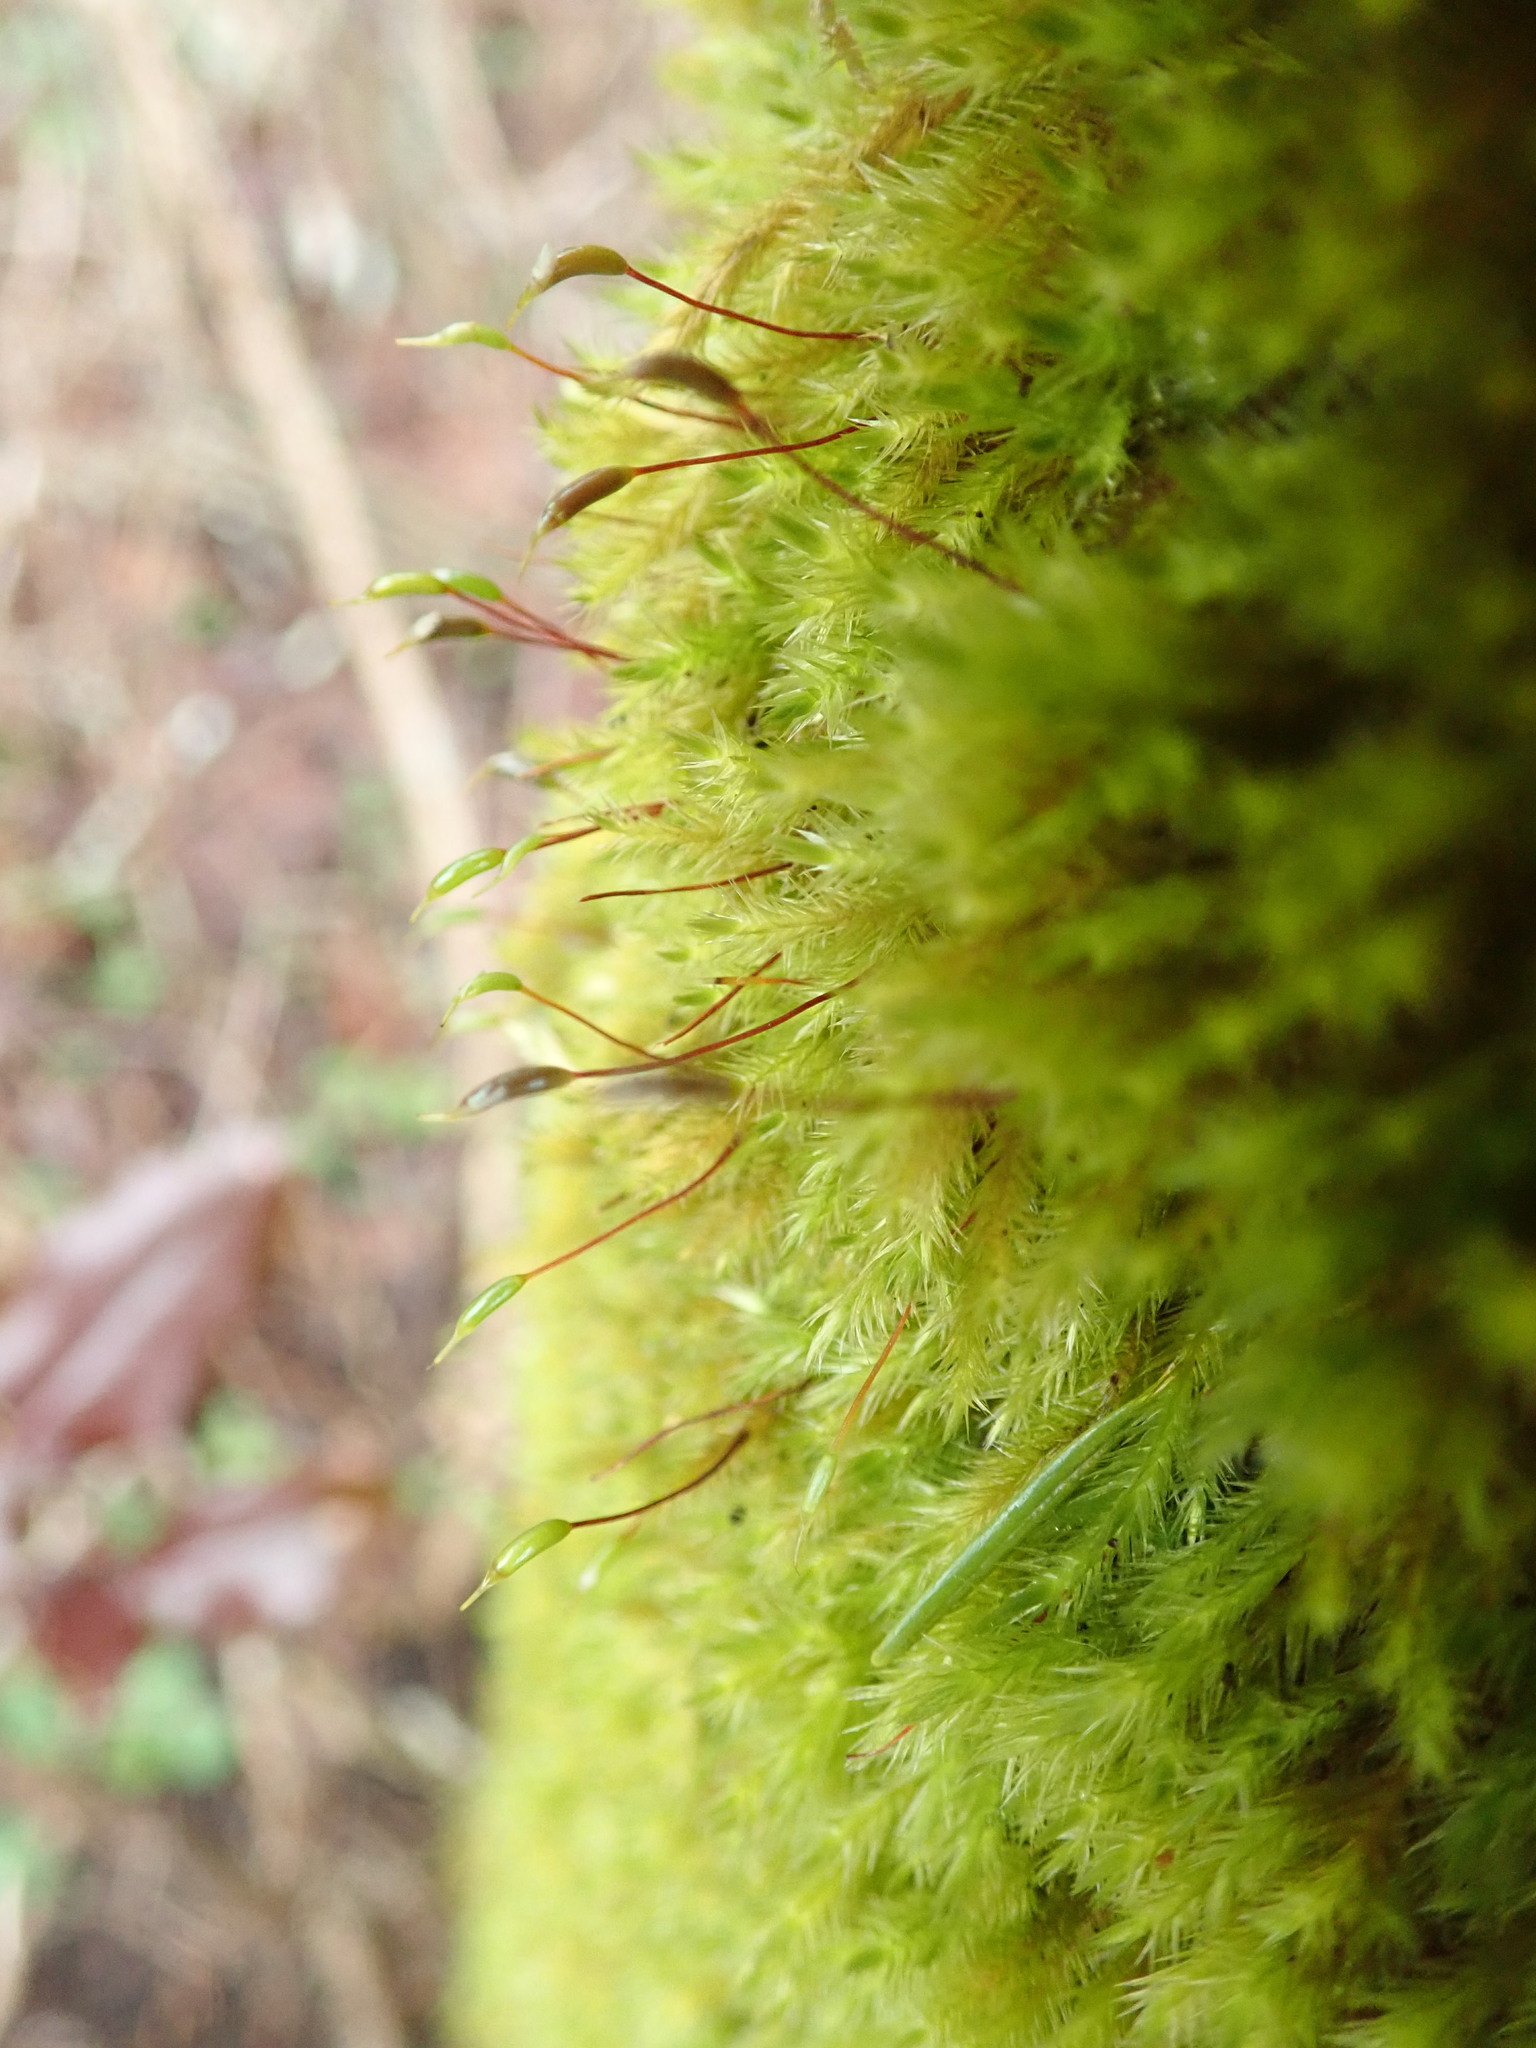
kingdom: Plantae
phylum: Bryophyta
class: Bryopsida
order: Hypnales
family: Brachytheciaceae
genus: Homalothecium
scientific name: Homalothecium fulgescens
